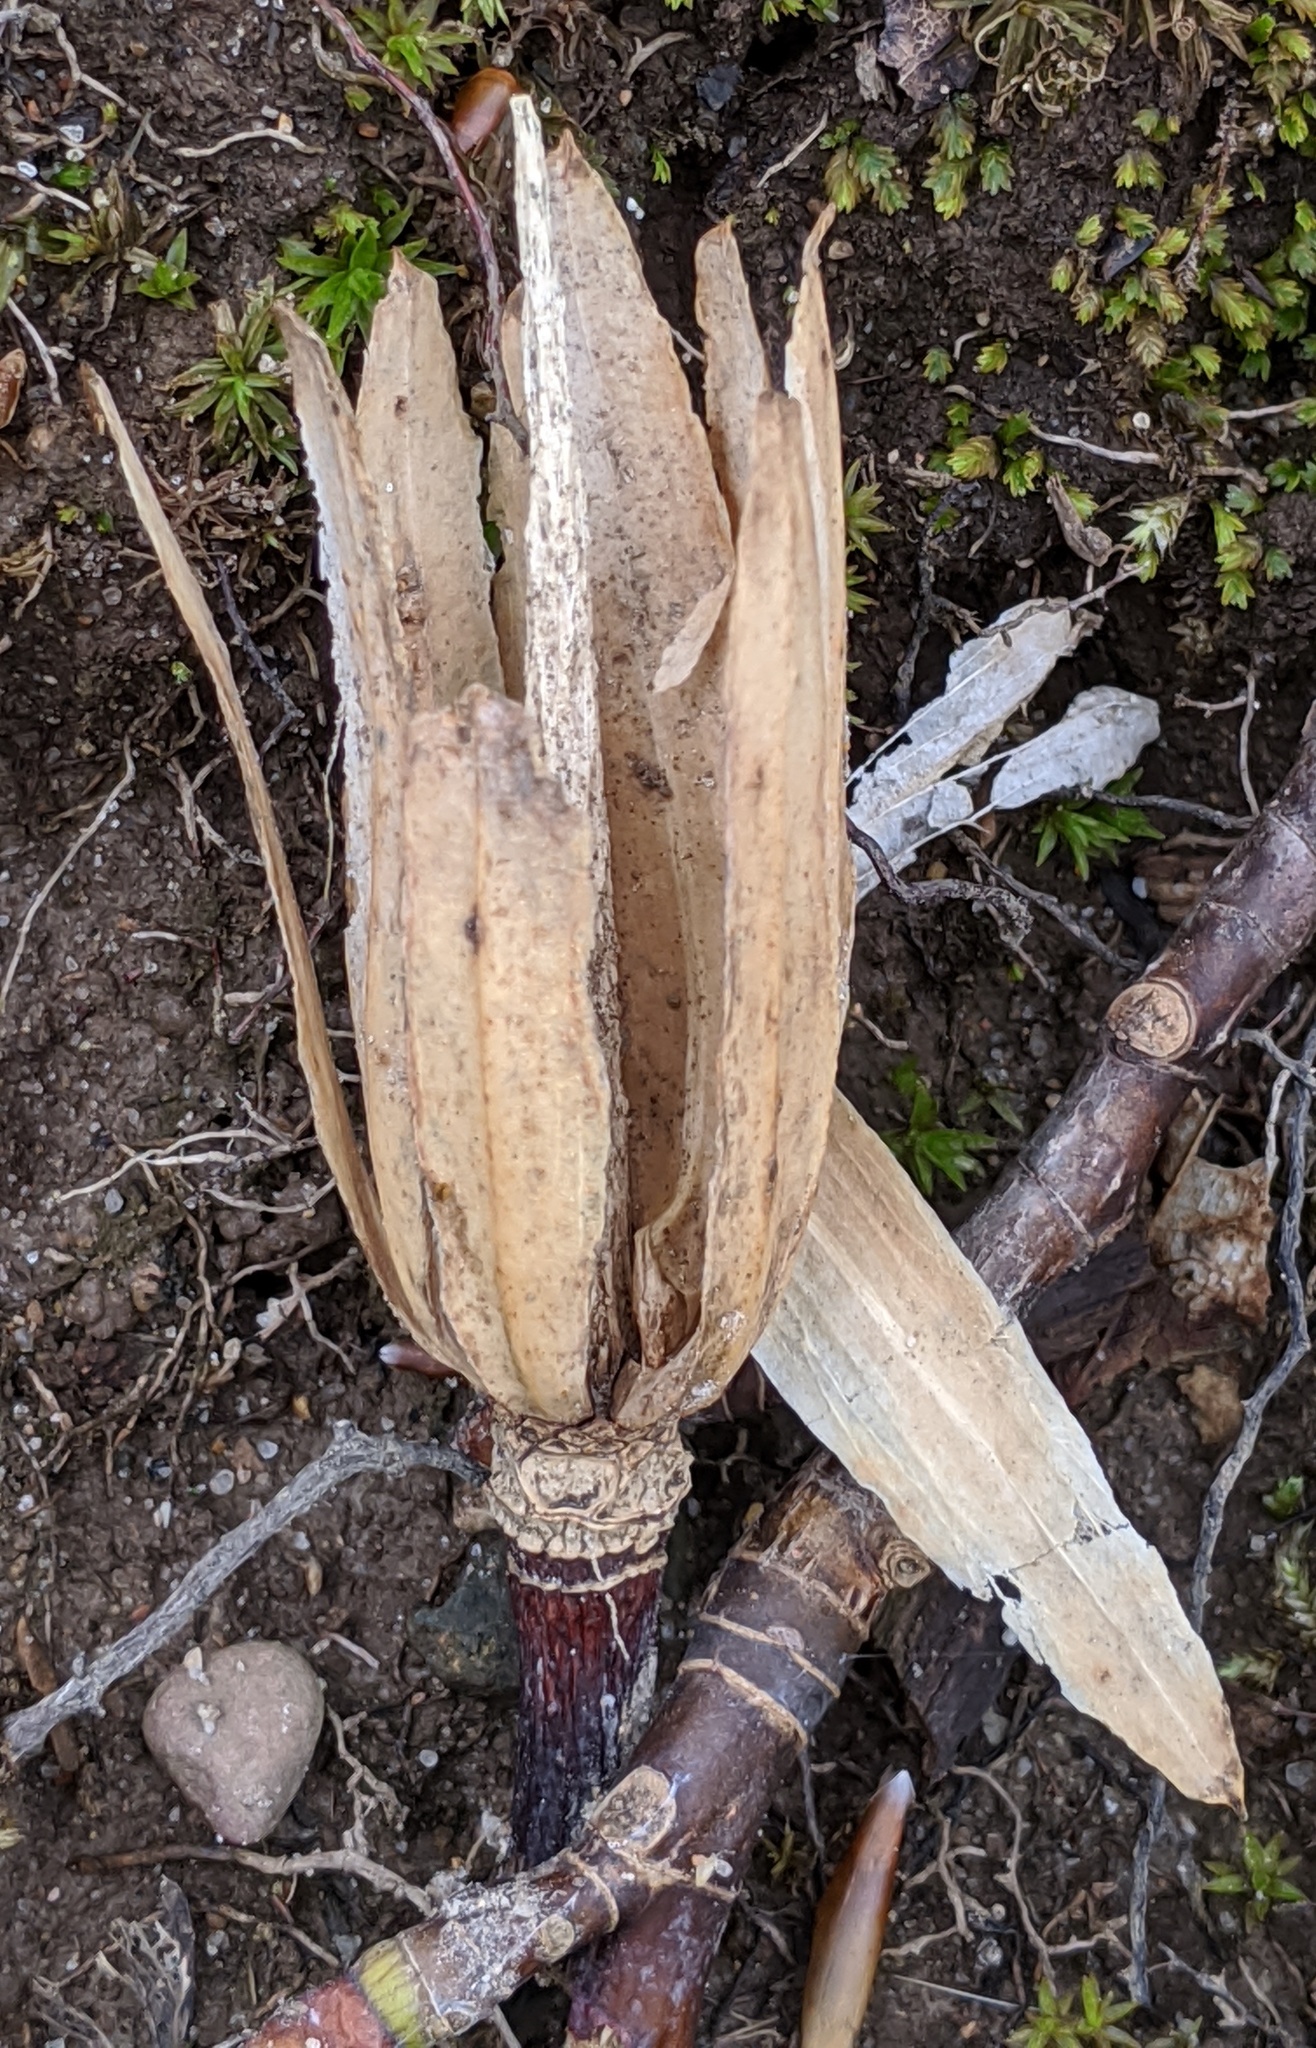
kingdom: Plantae
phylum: Tracheophyta
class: Magnoliopsida
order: Magnoliales
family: Magnoliaceae
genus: Liriodendron
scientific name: Liriodendron tulipifera
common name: Tulip tree
